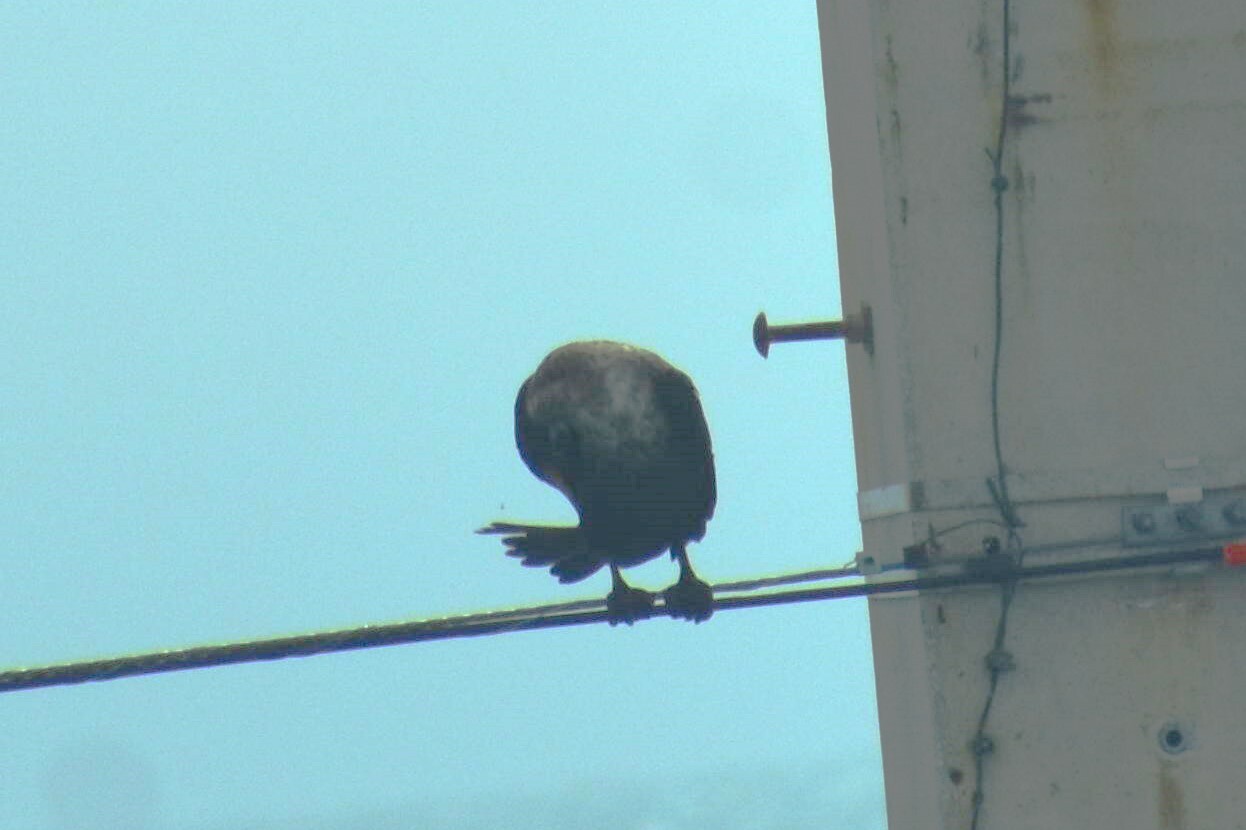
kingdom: Animalia
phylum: Chordata
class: Aves
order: Suliformes
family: Phalacrocoracidae
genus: Phalacrocorax
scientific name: Phalacrocorax auritus
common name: Double-crested cormorant
